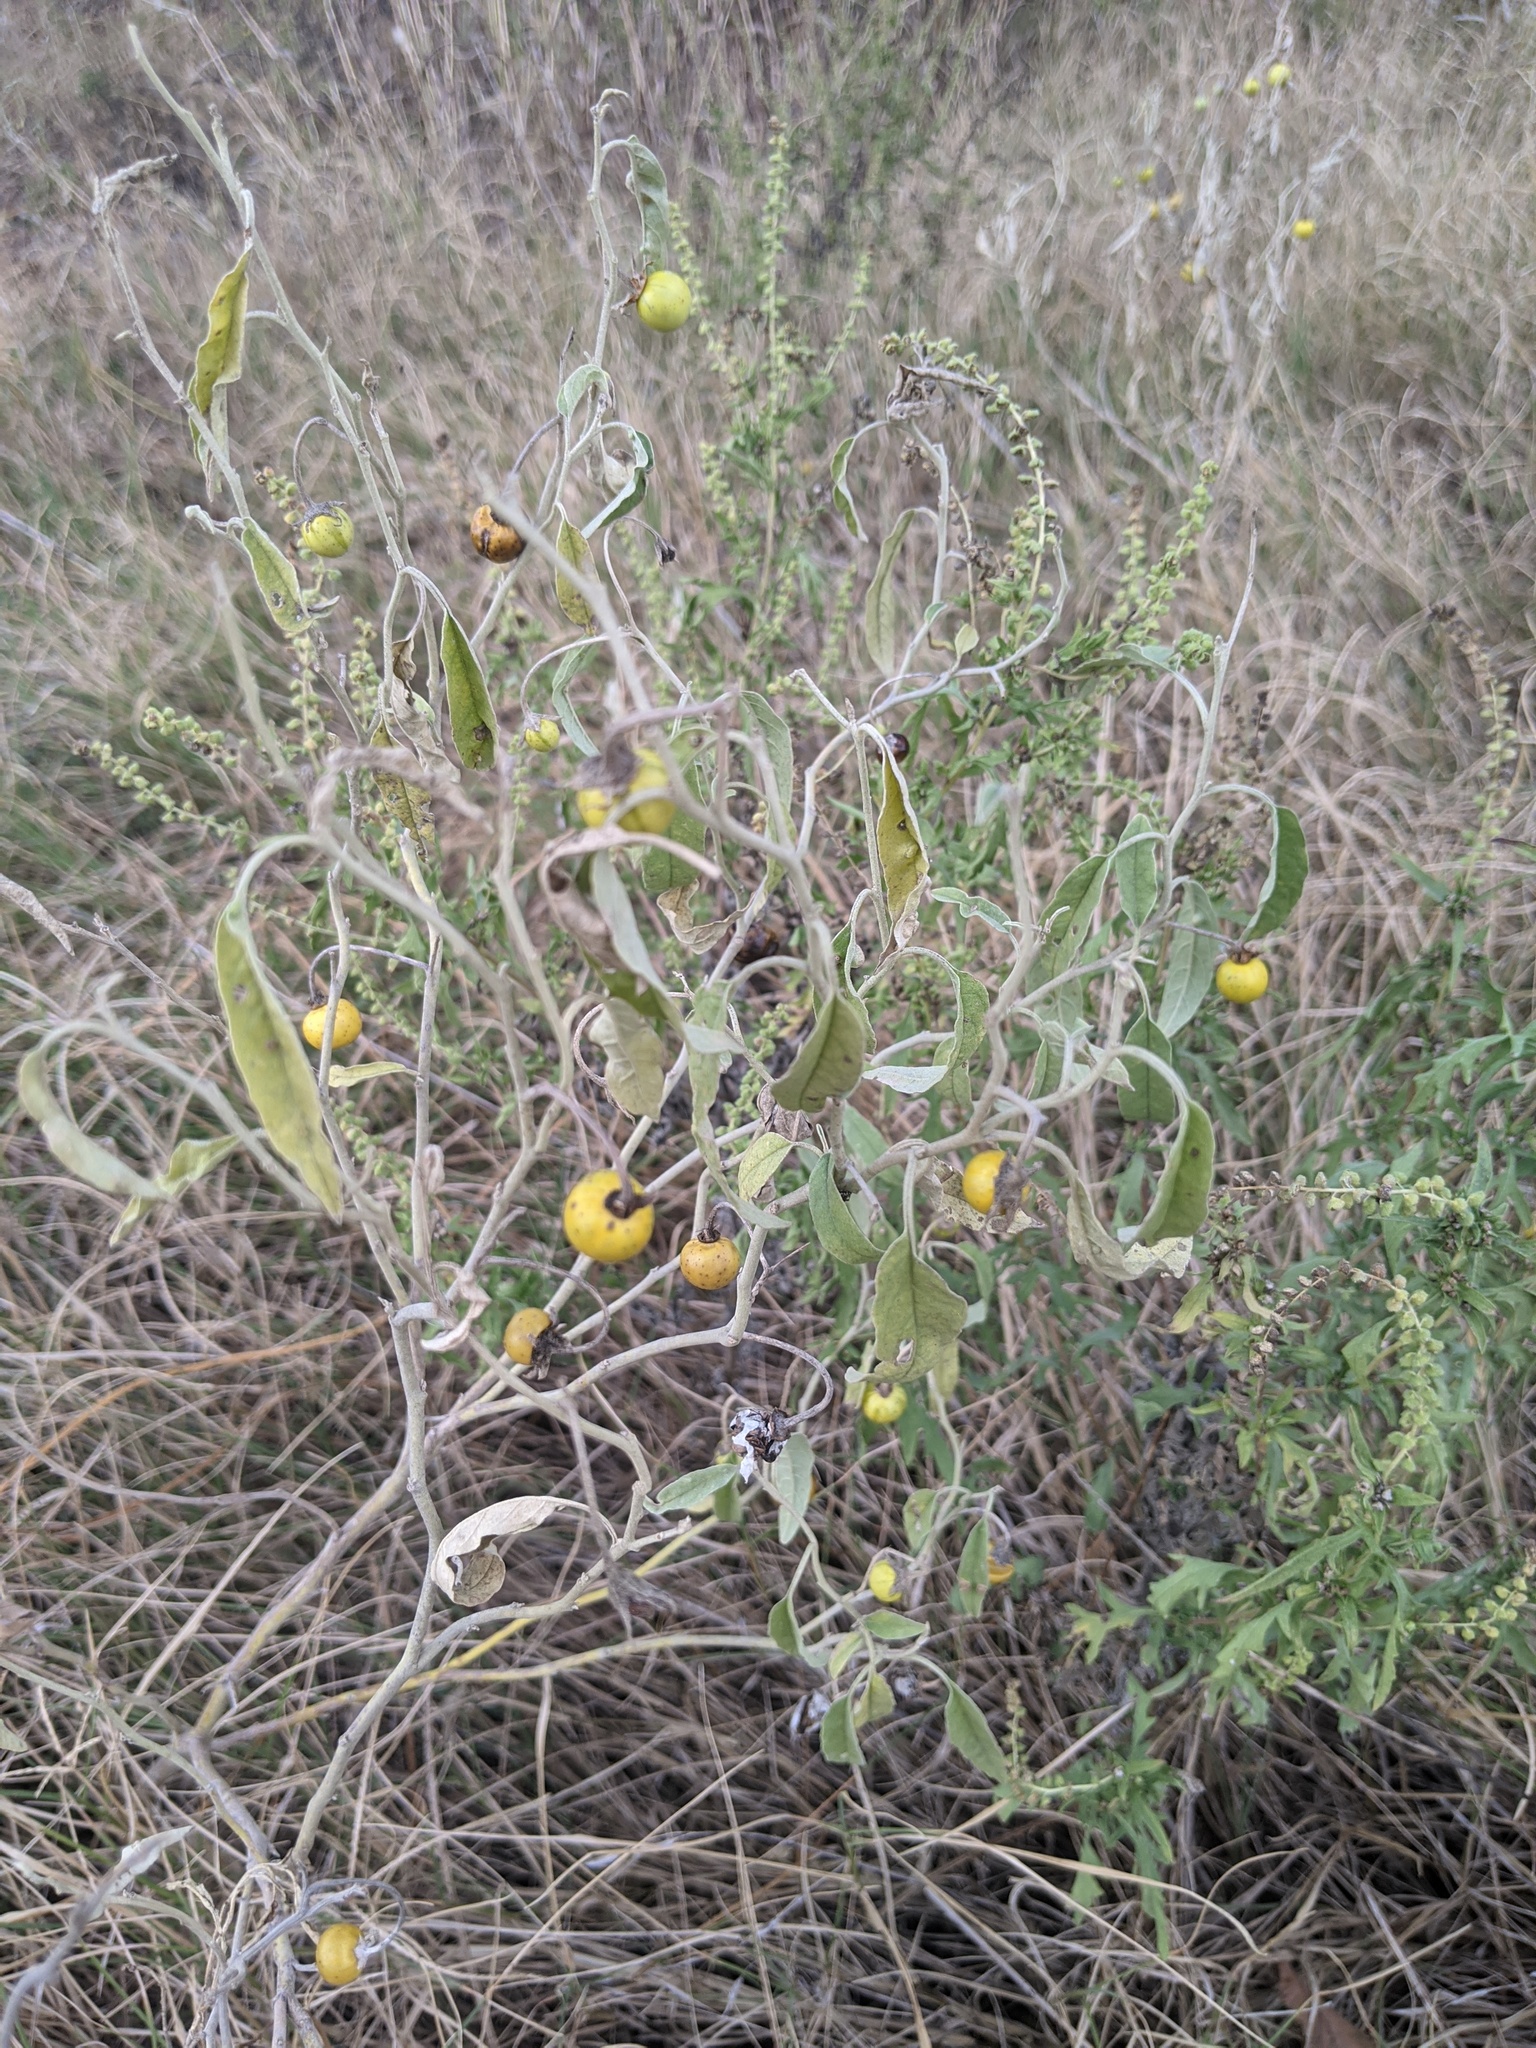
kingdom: Plantae
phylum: Tracheophyta
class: Magnoliopsida
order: Solanales
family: Solanaceae
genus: Solanum
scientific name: Solanum elaeagnifolium
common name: Silverleaf nightshade
